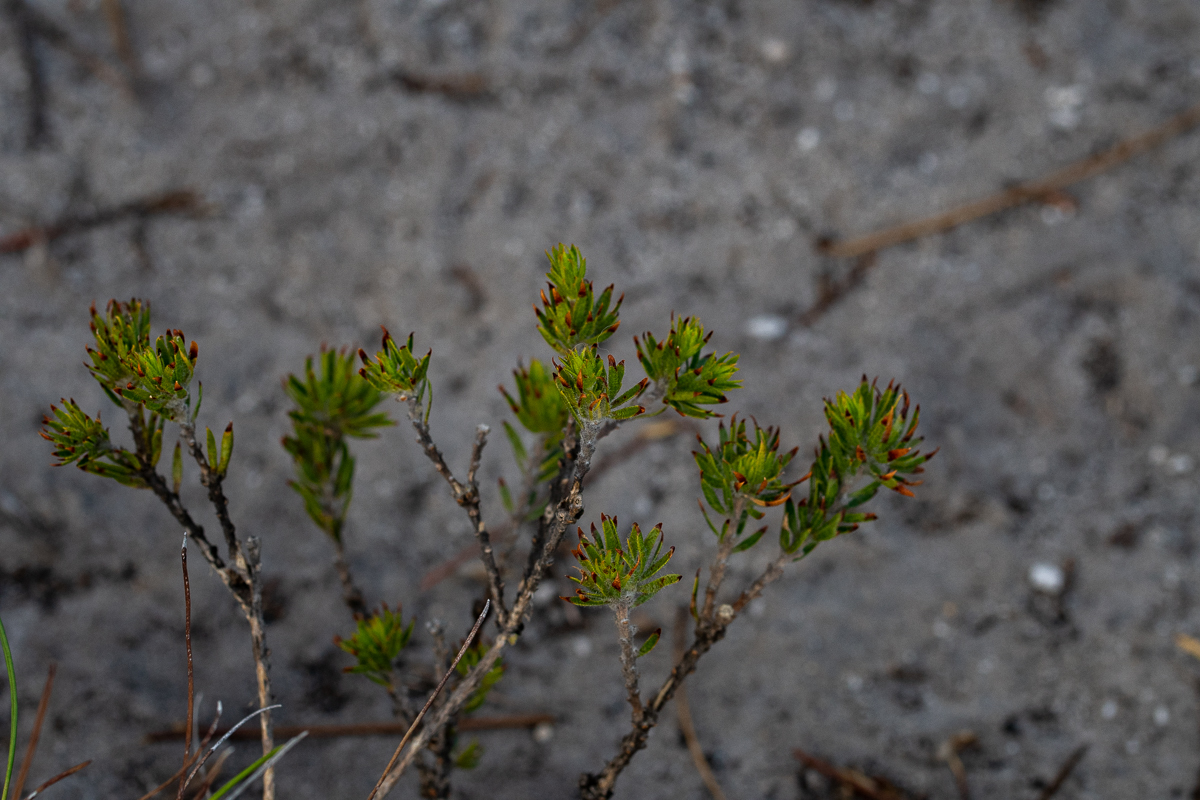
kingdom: Plantae
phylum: Tracheophyta
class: Magnoliopsida
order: Fabales
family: Fabaceae
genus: Aspalathus
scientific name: Aspalathus aspalathoides
